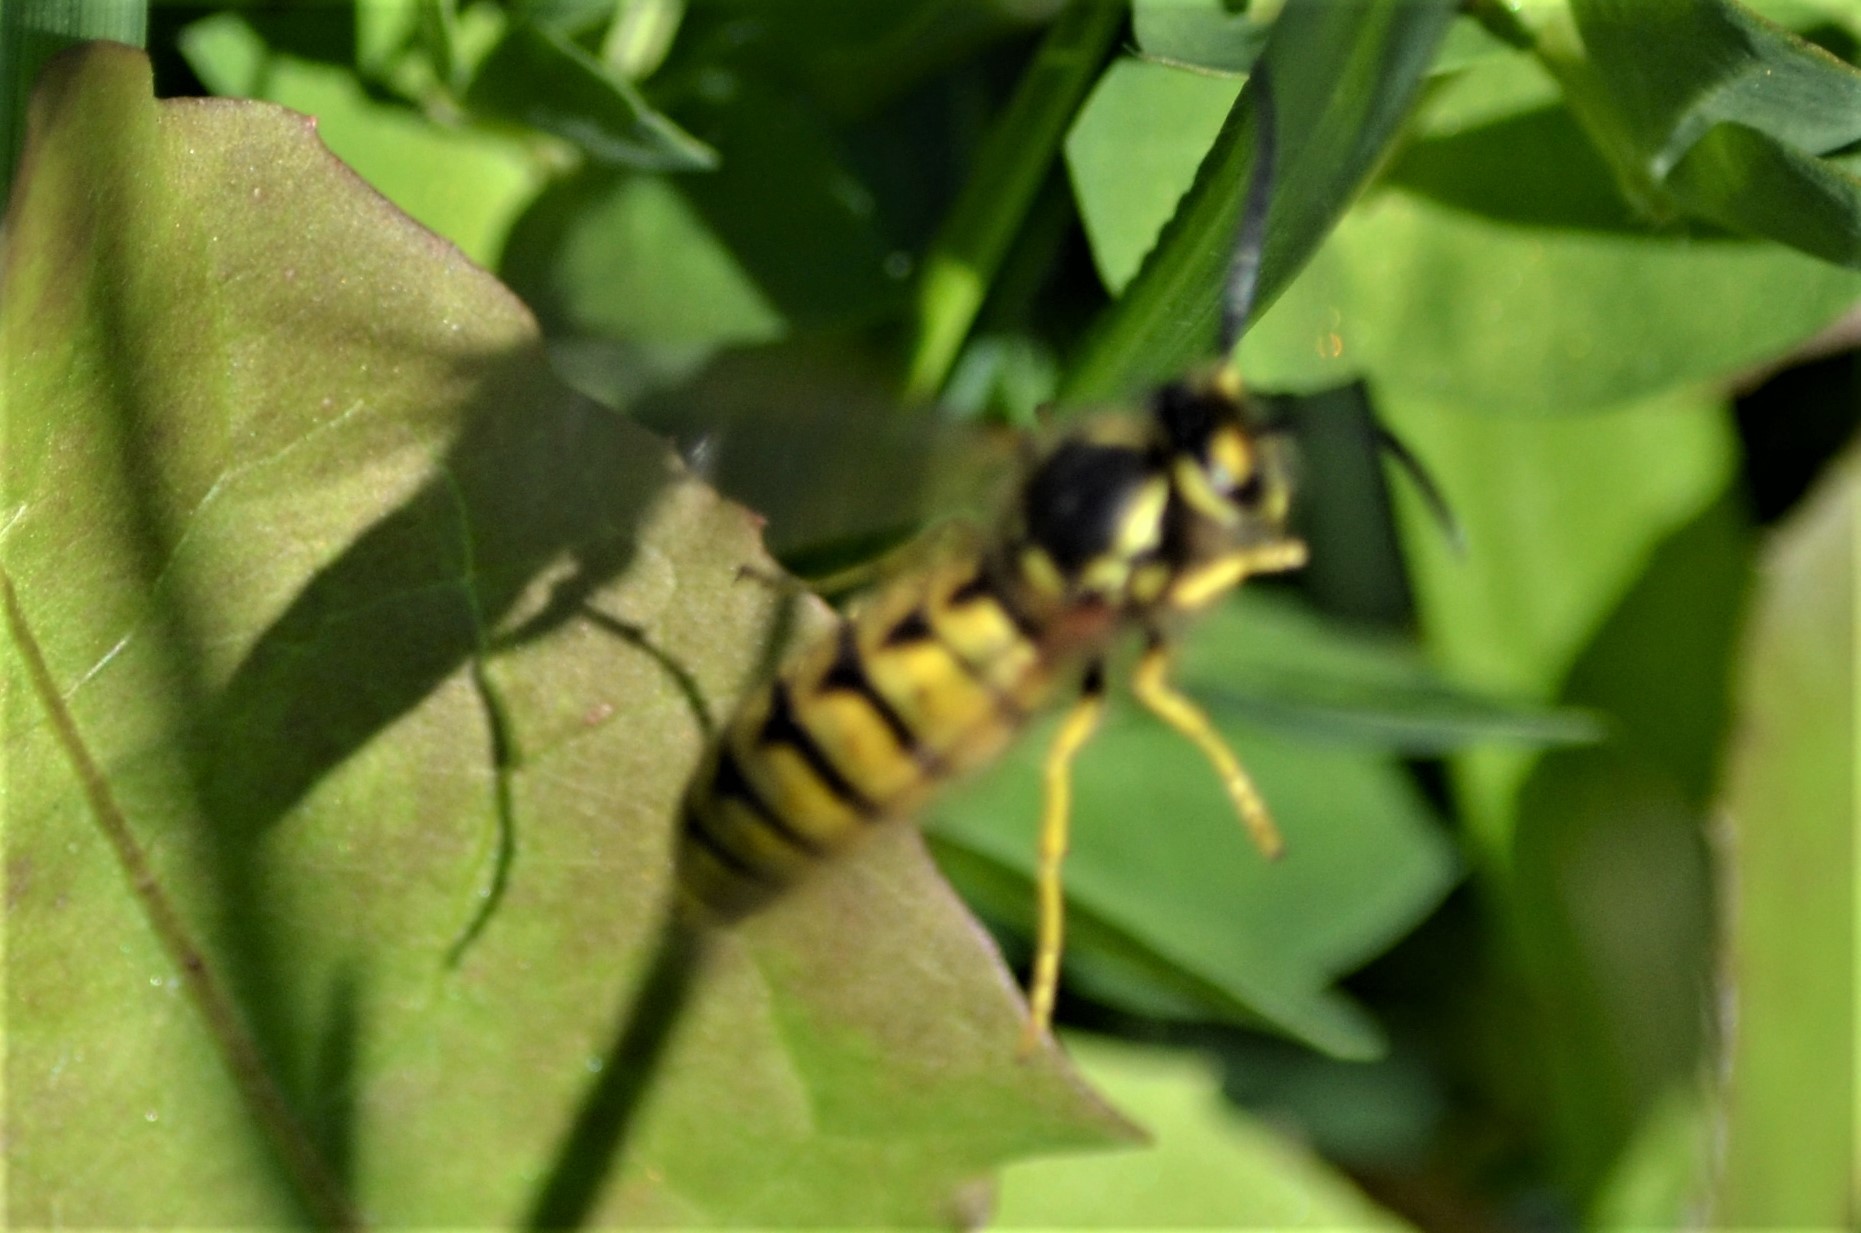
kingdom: Animalia
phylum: Arthropoda
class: Insecta
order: Hymenoptera
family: Vespidae
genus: Vespula
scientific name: Vespula germanica
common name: German wasp
